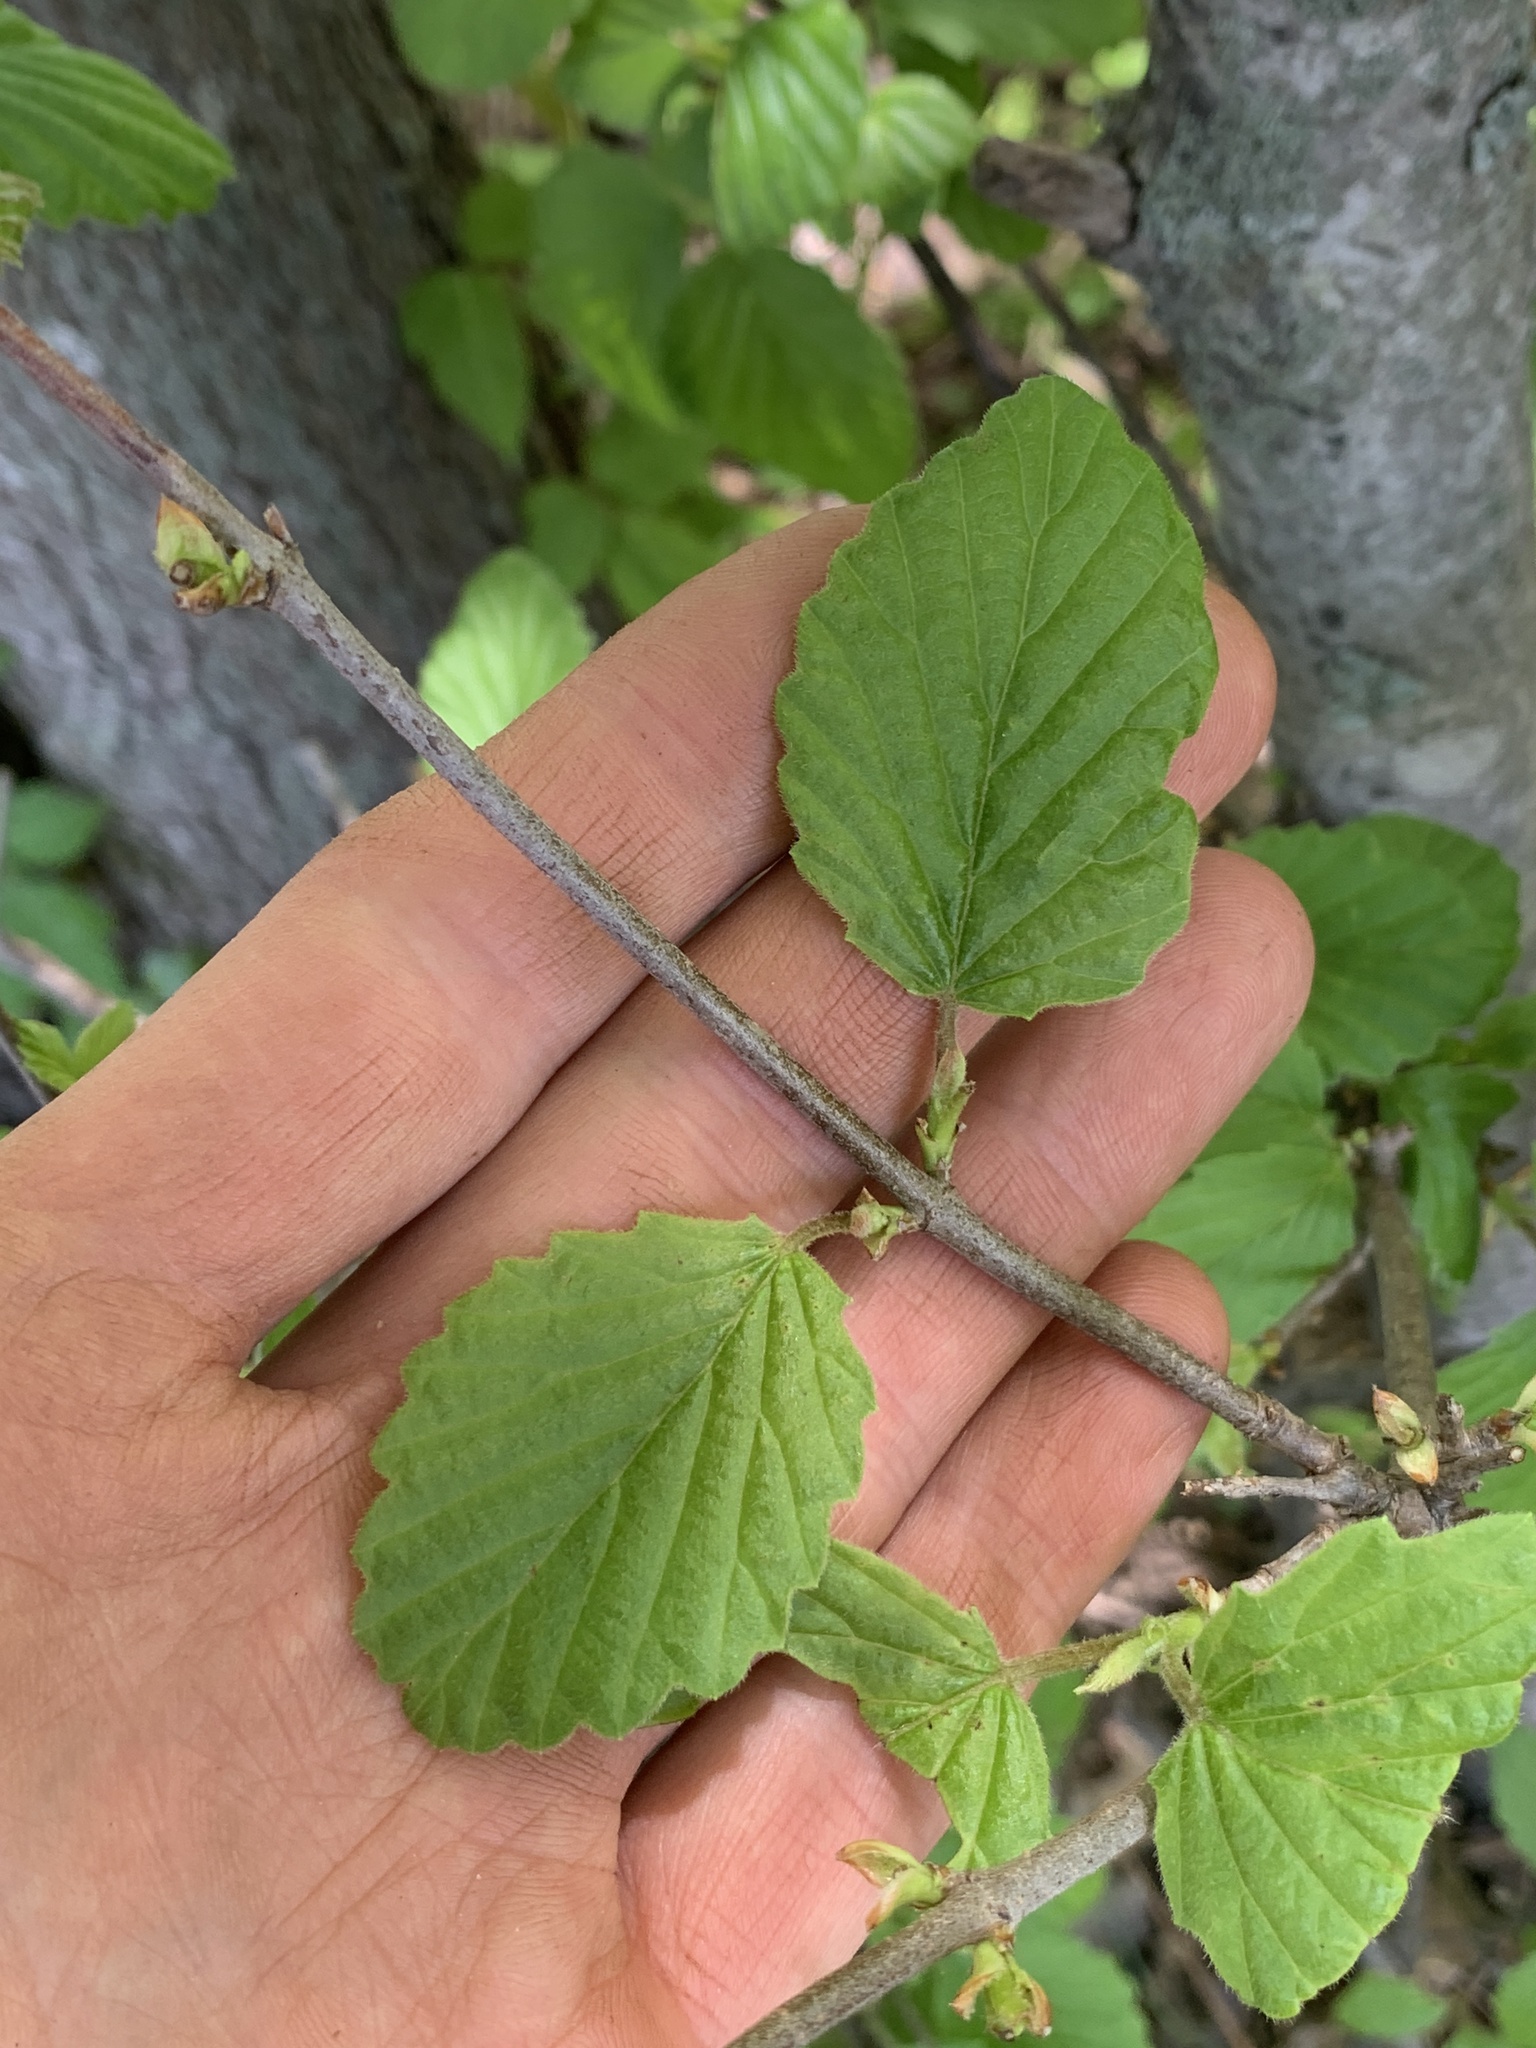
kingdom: Plantae
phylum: Tracheophyta
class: Magnoliopsida
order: Dipsacales
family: Viburnaceae
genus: Viburnum
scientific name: Viburnum deamii
